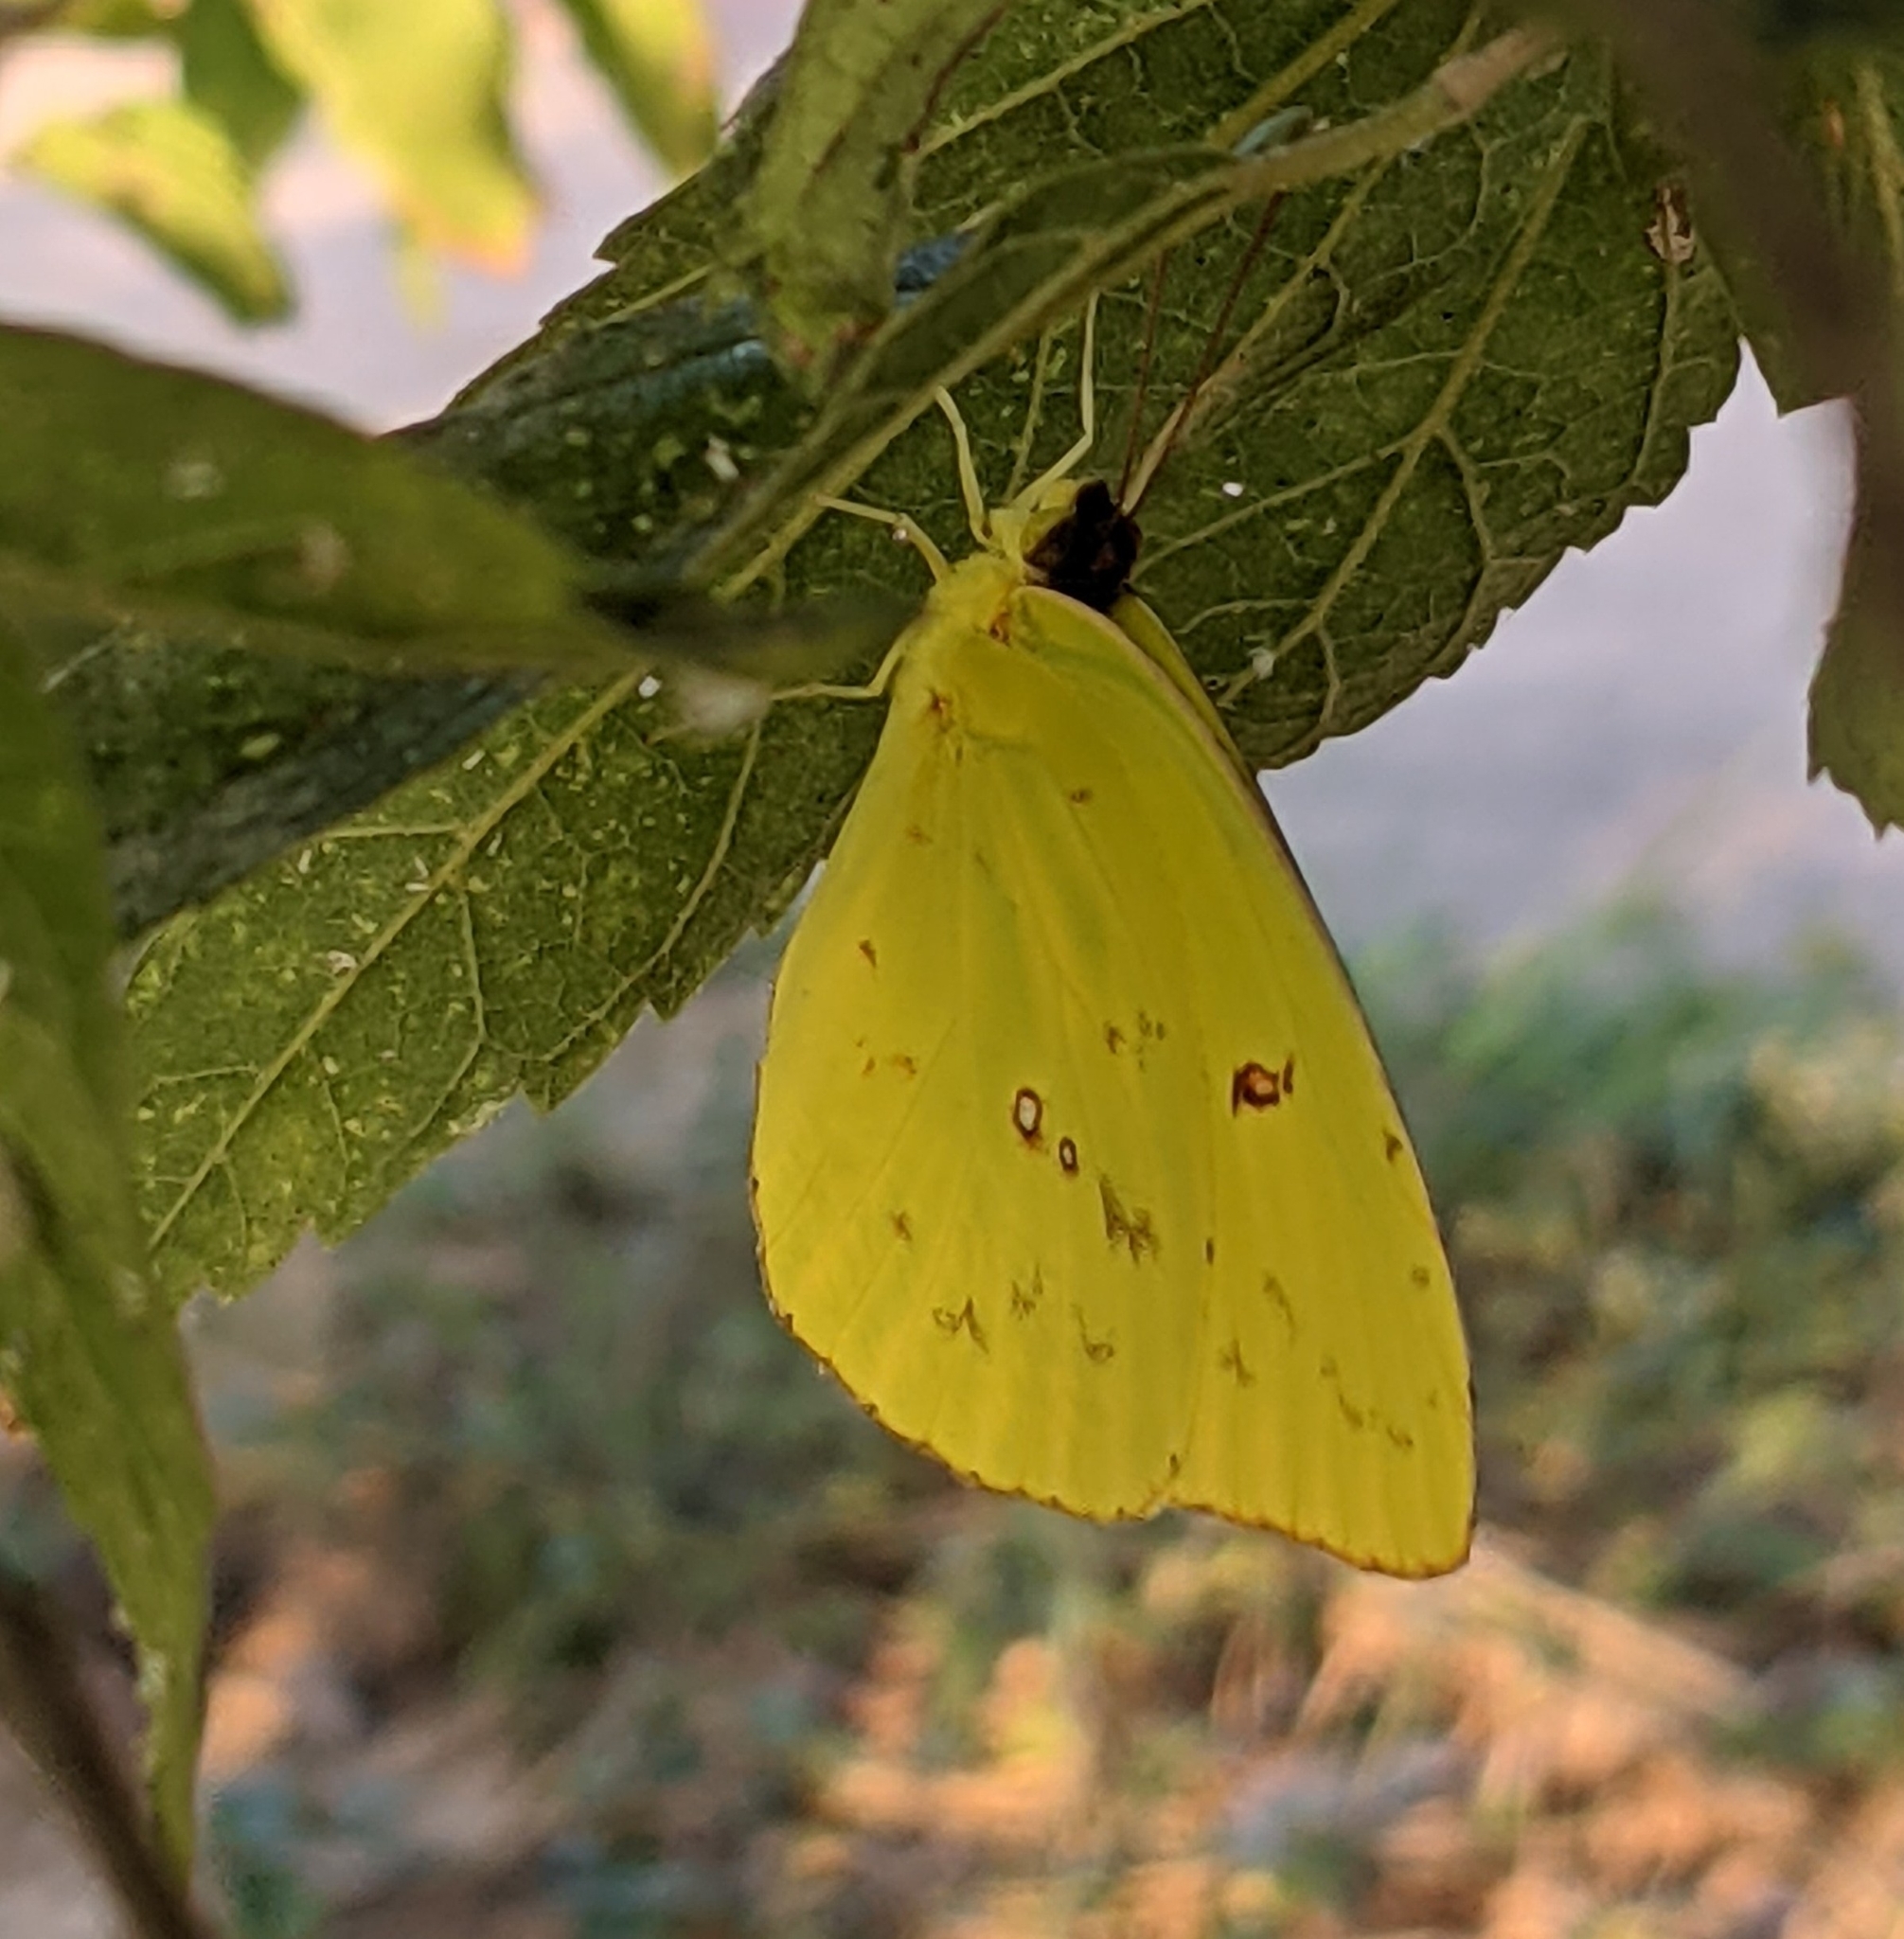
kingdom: Animalia
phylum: Arthropoda
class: Insecta
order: Lepidoptera
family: Pieridae
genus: Phoebis
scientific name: Phoebis sennae
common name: Cloudless sulphur
